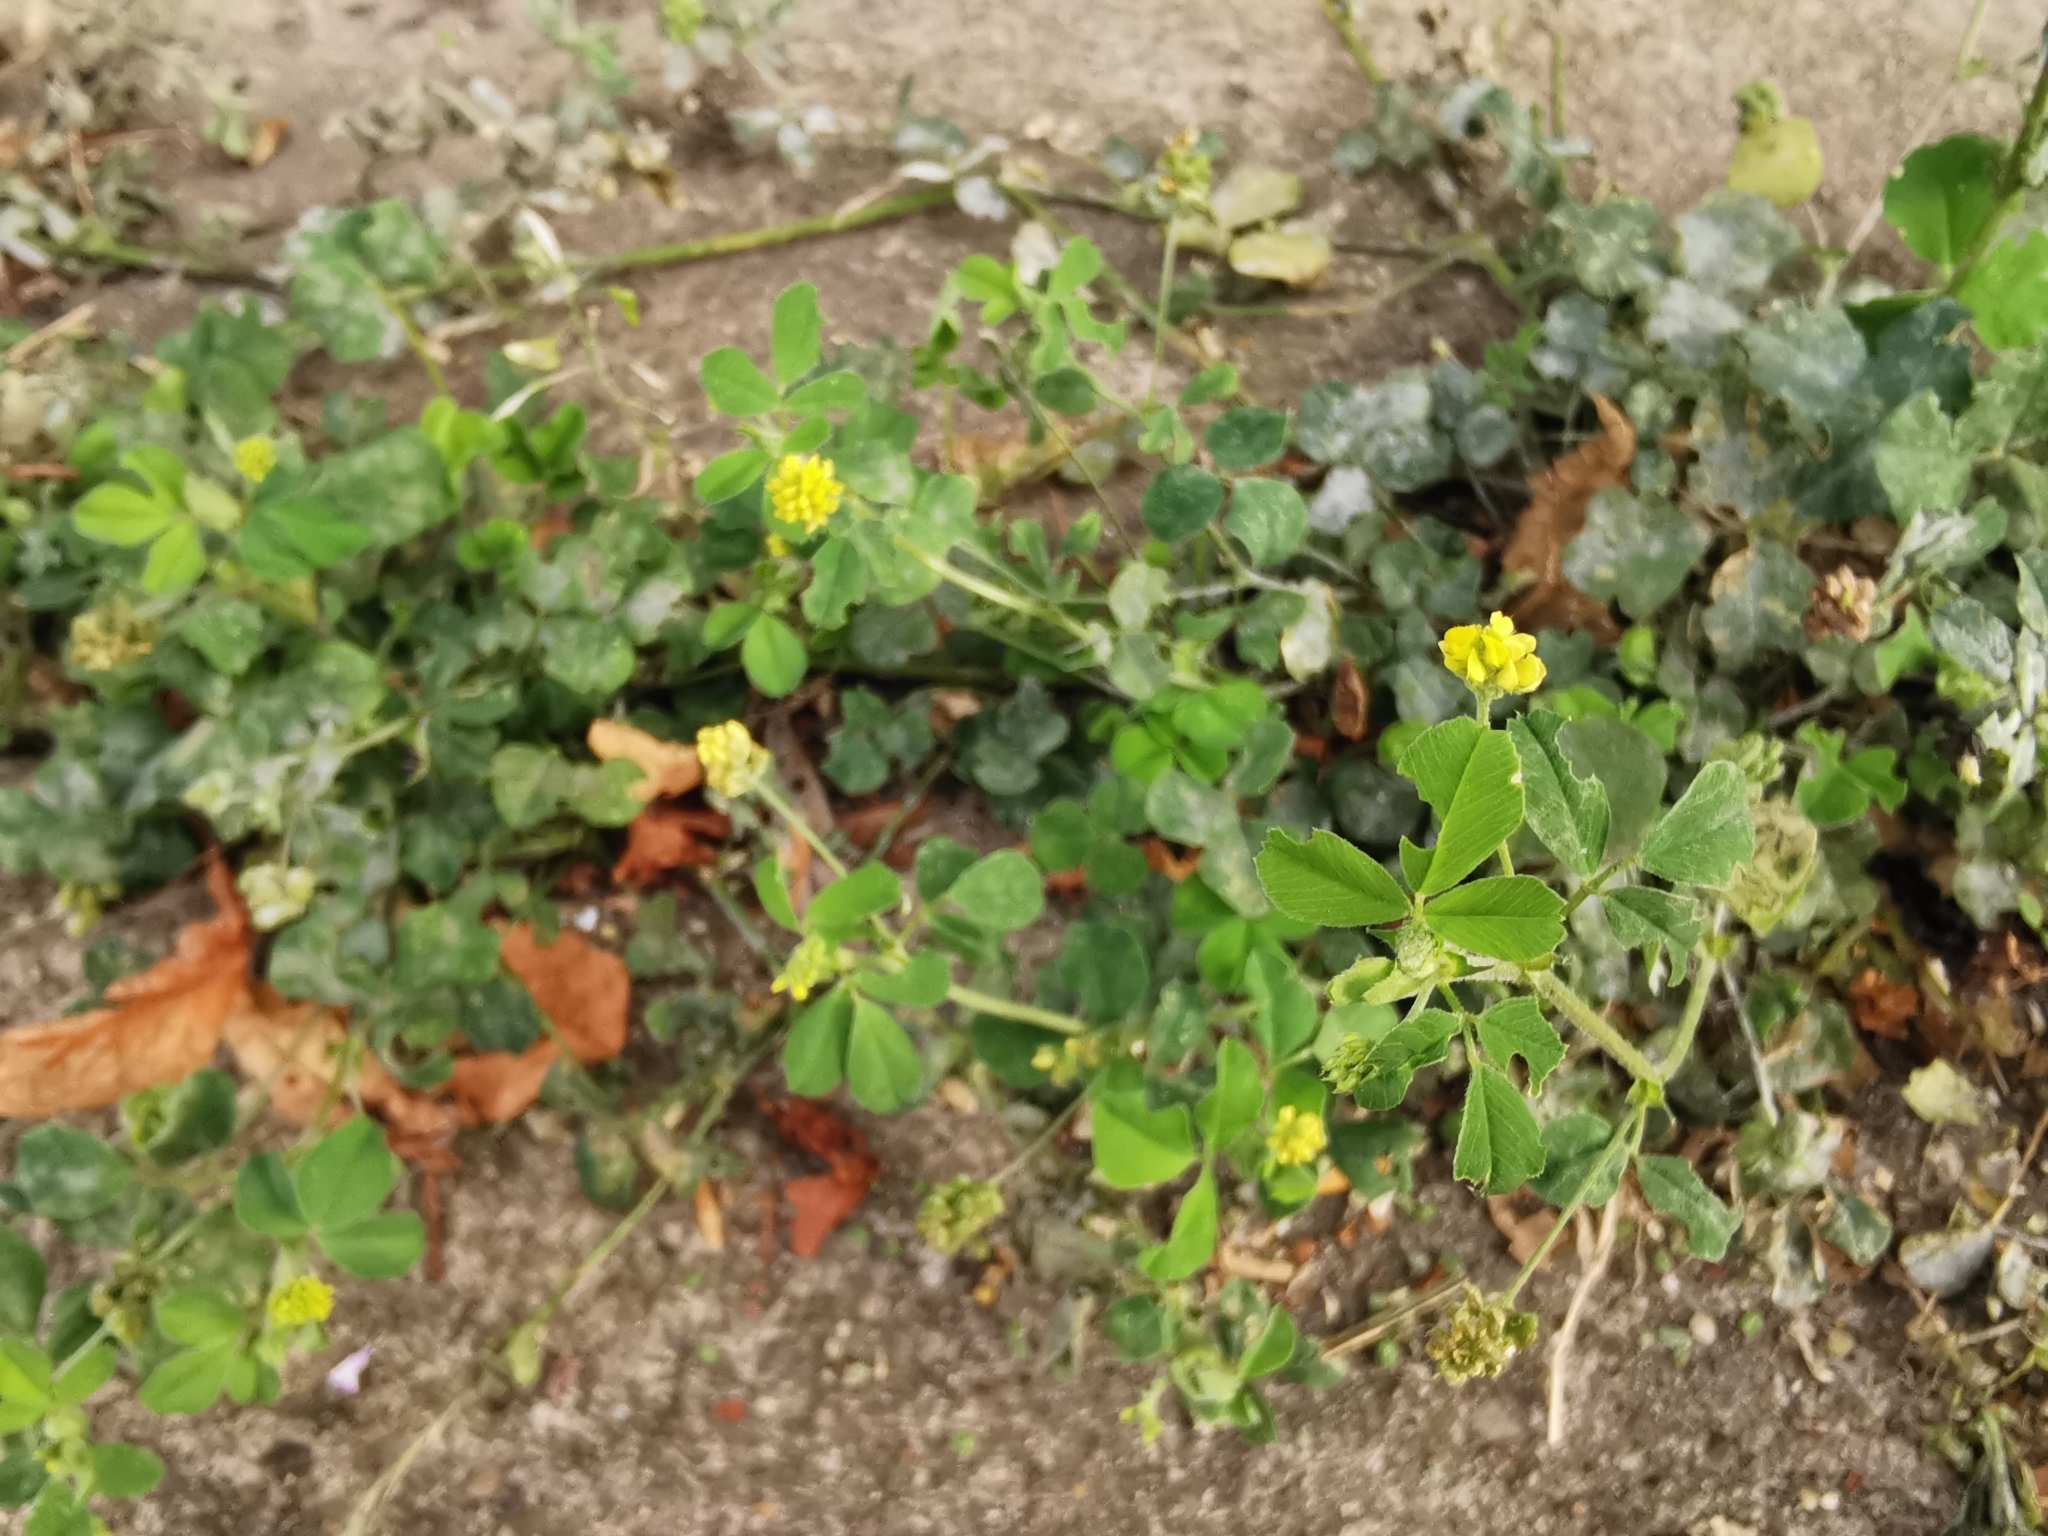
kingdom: Plantae
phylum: Tracheophyta
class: Magnoliopsida
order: Fabales
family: Fabaceae
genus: Medicago
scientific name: Medicago lupulina
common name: Black medick
